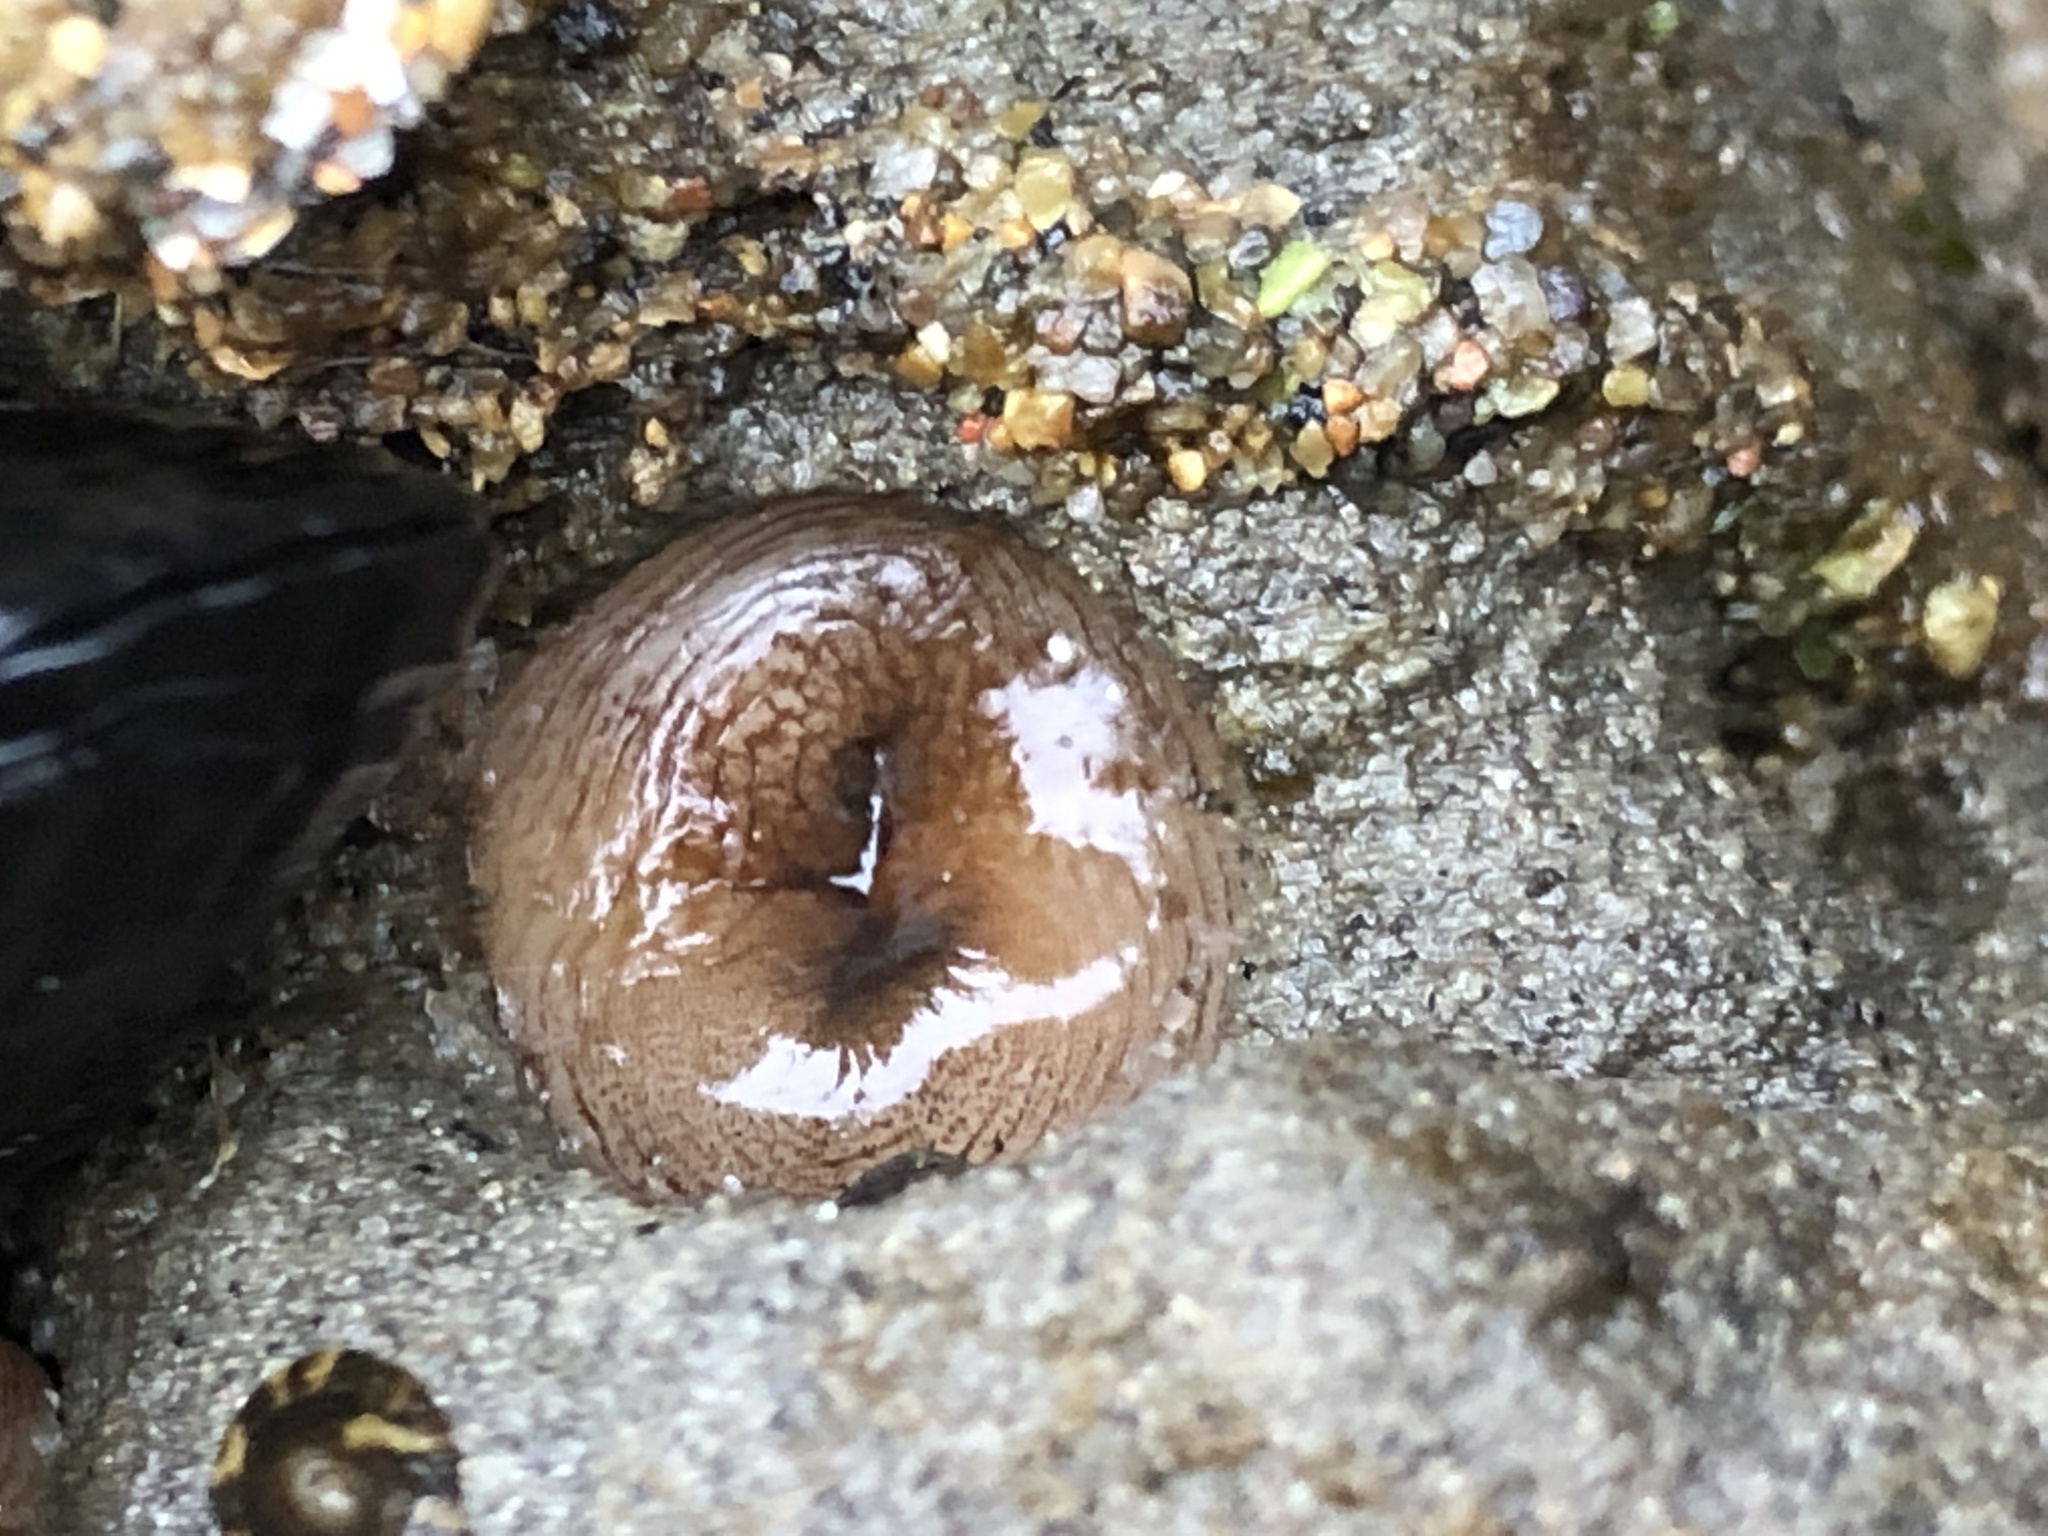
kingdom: Animalia
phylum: Mollusca
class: Bivalvia
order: Myida
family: Pholadidae
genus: Zirfaea
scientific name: Zirfaea pilsbryi
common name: Rough piddock
